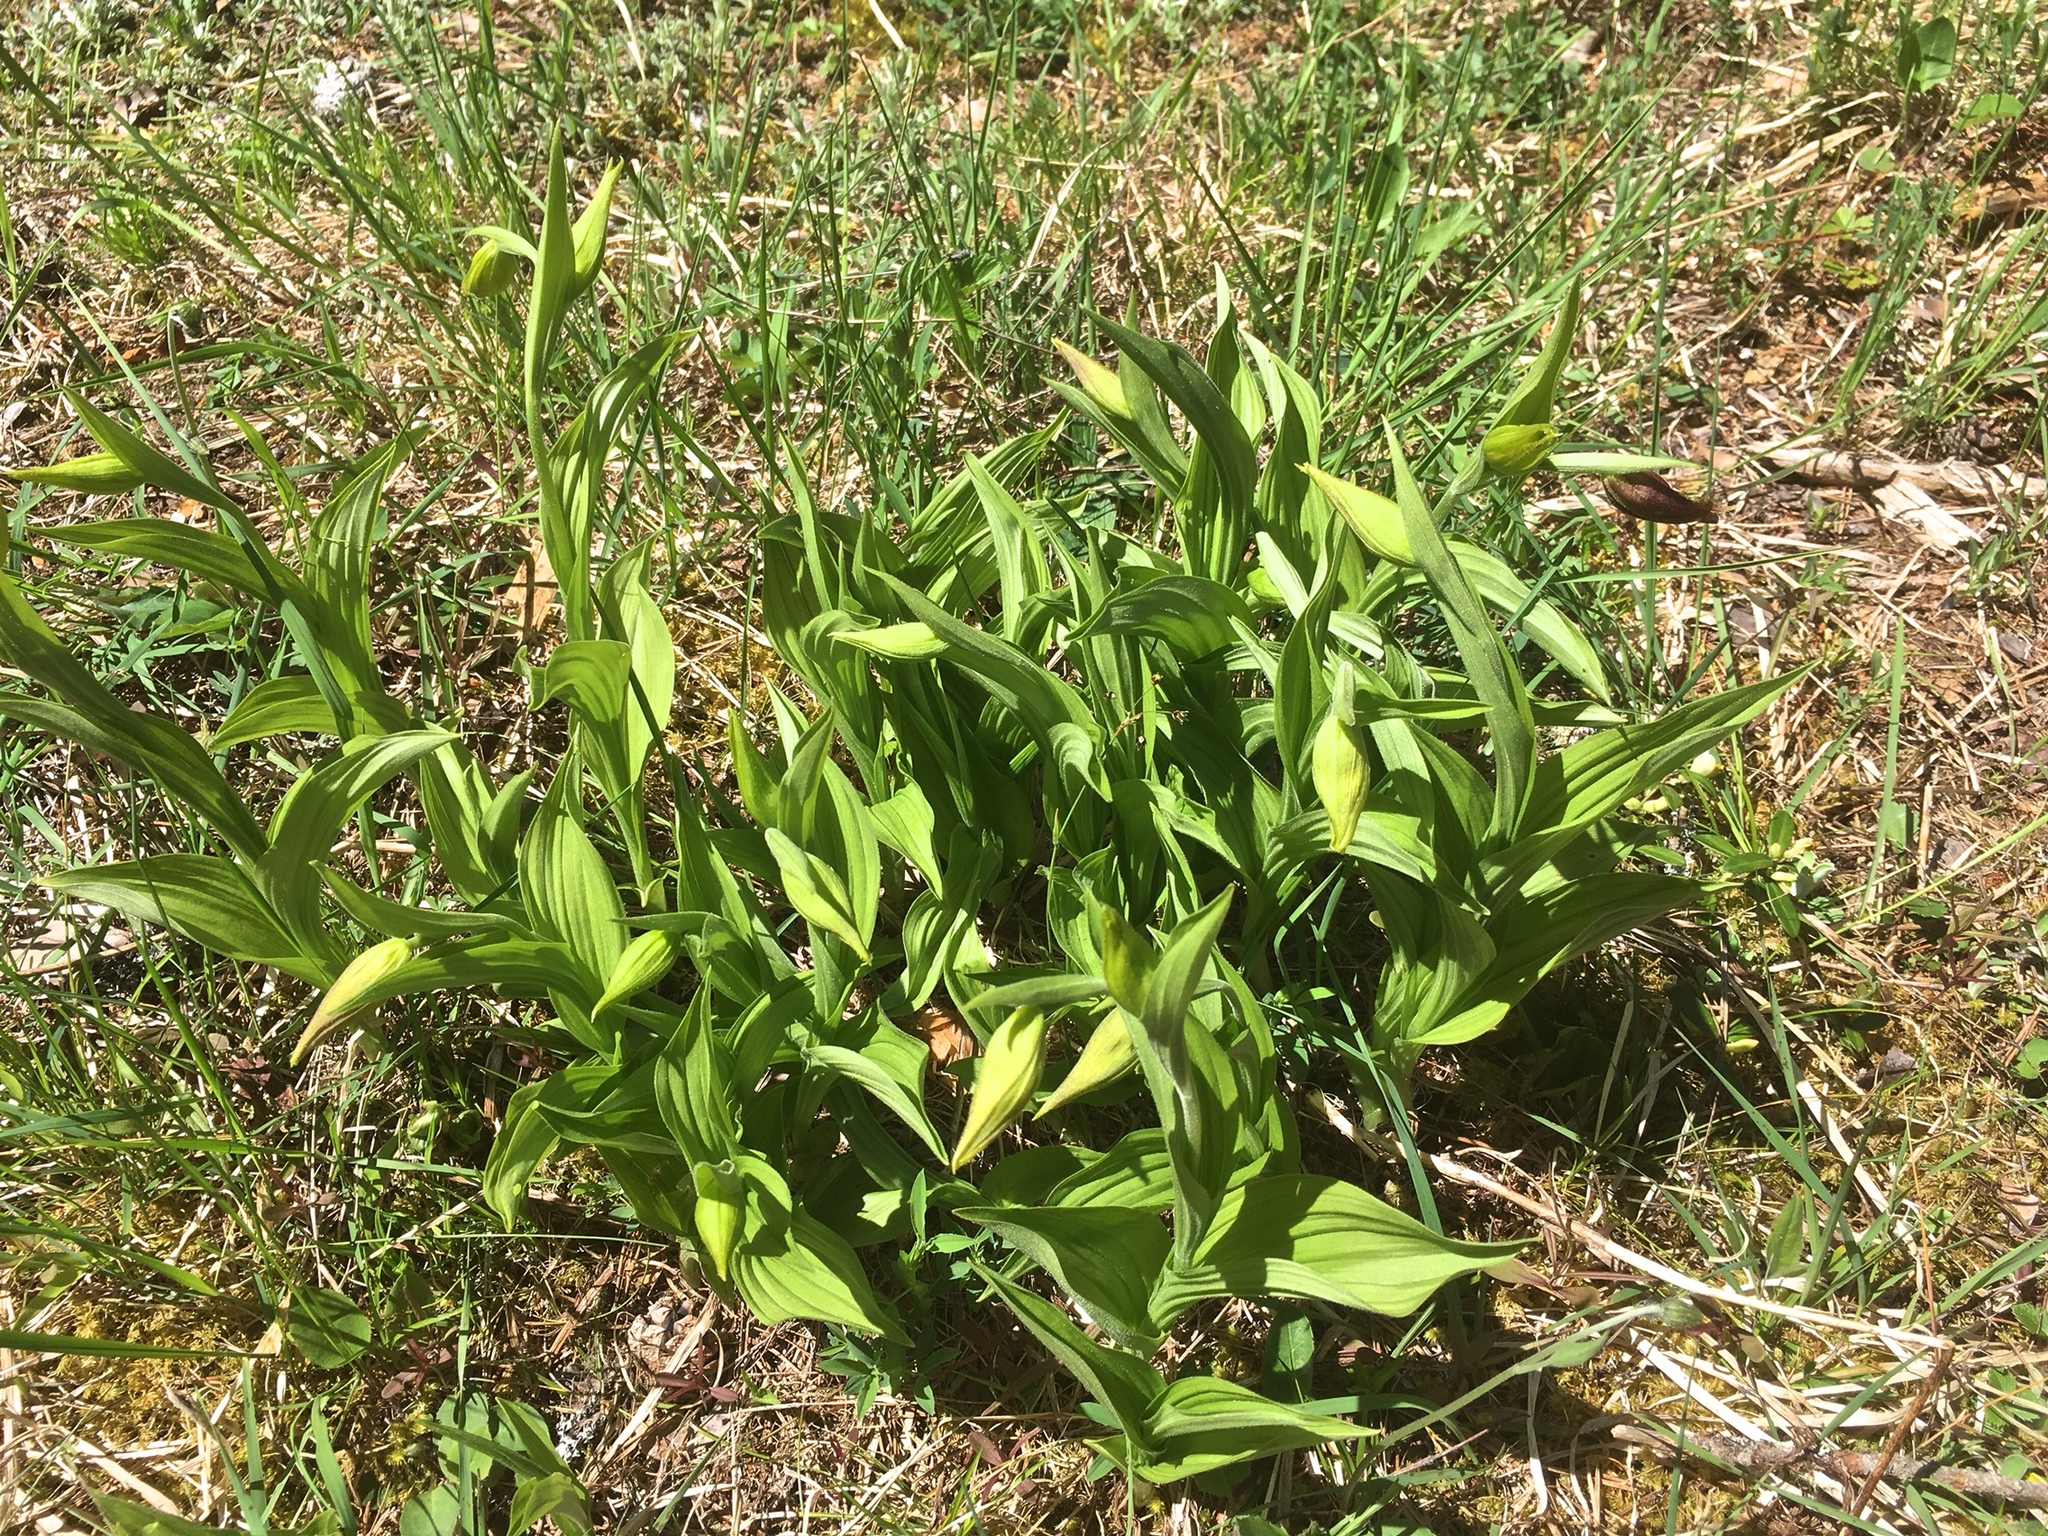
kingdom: Plantae
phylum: Tracheophyta
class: Liliopsida
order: Asparagales
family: Orchidaceae
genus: Cypripedium
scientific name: Cypripedium calceolus
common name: Lady's-slipper
